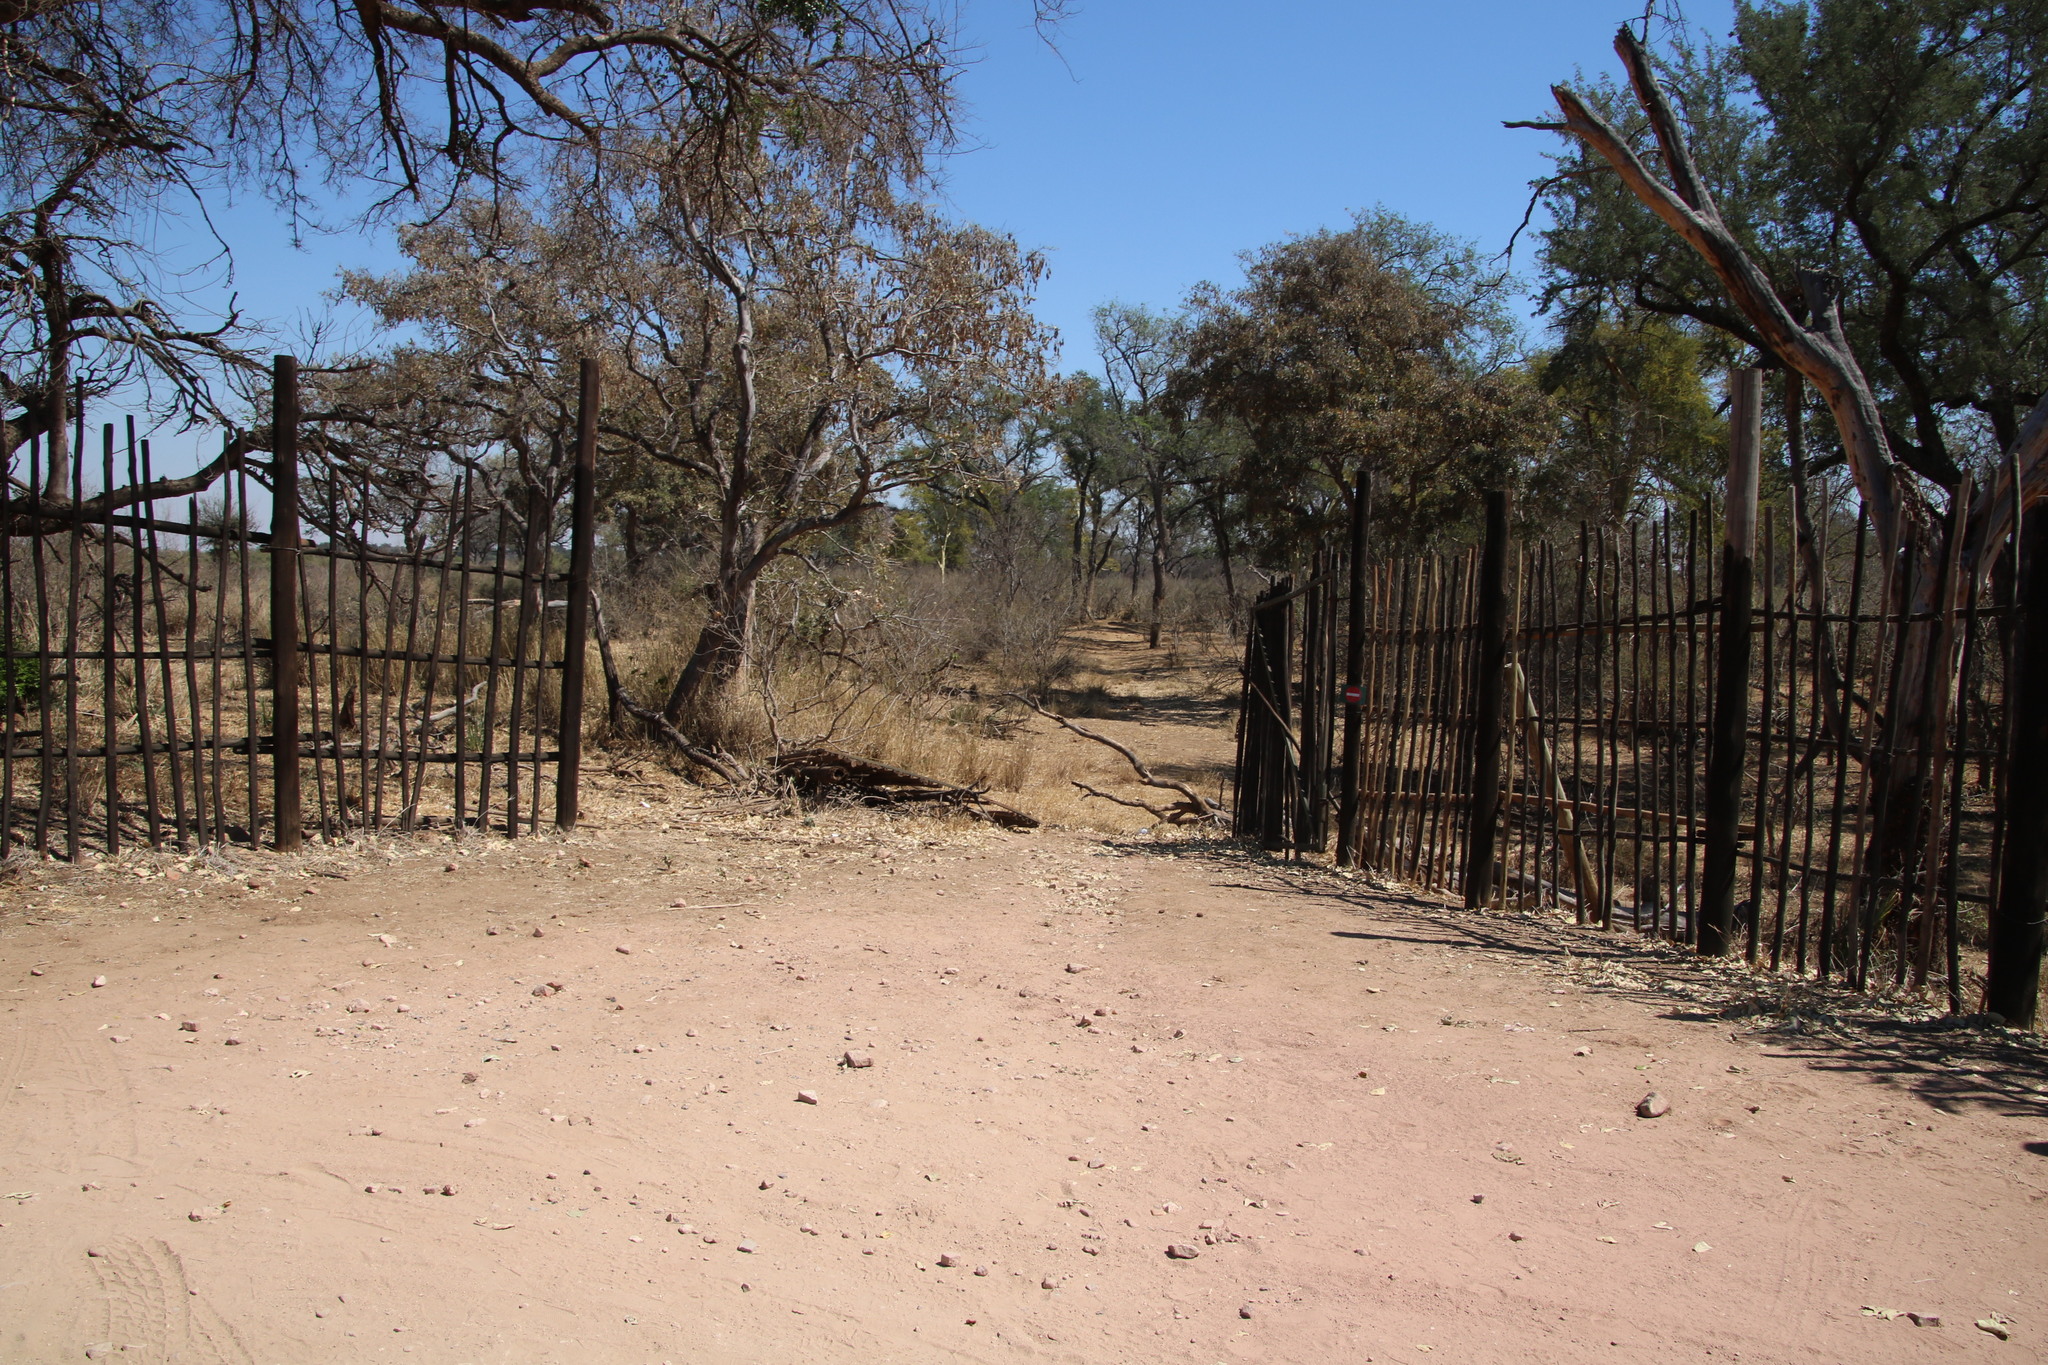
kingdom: Plantae
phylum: Tracheophyta
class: Magnoliopsida
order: Fabales
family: Fabaceae
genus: Philenoptera
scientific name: Philenoptera violacea
